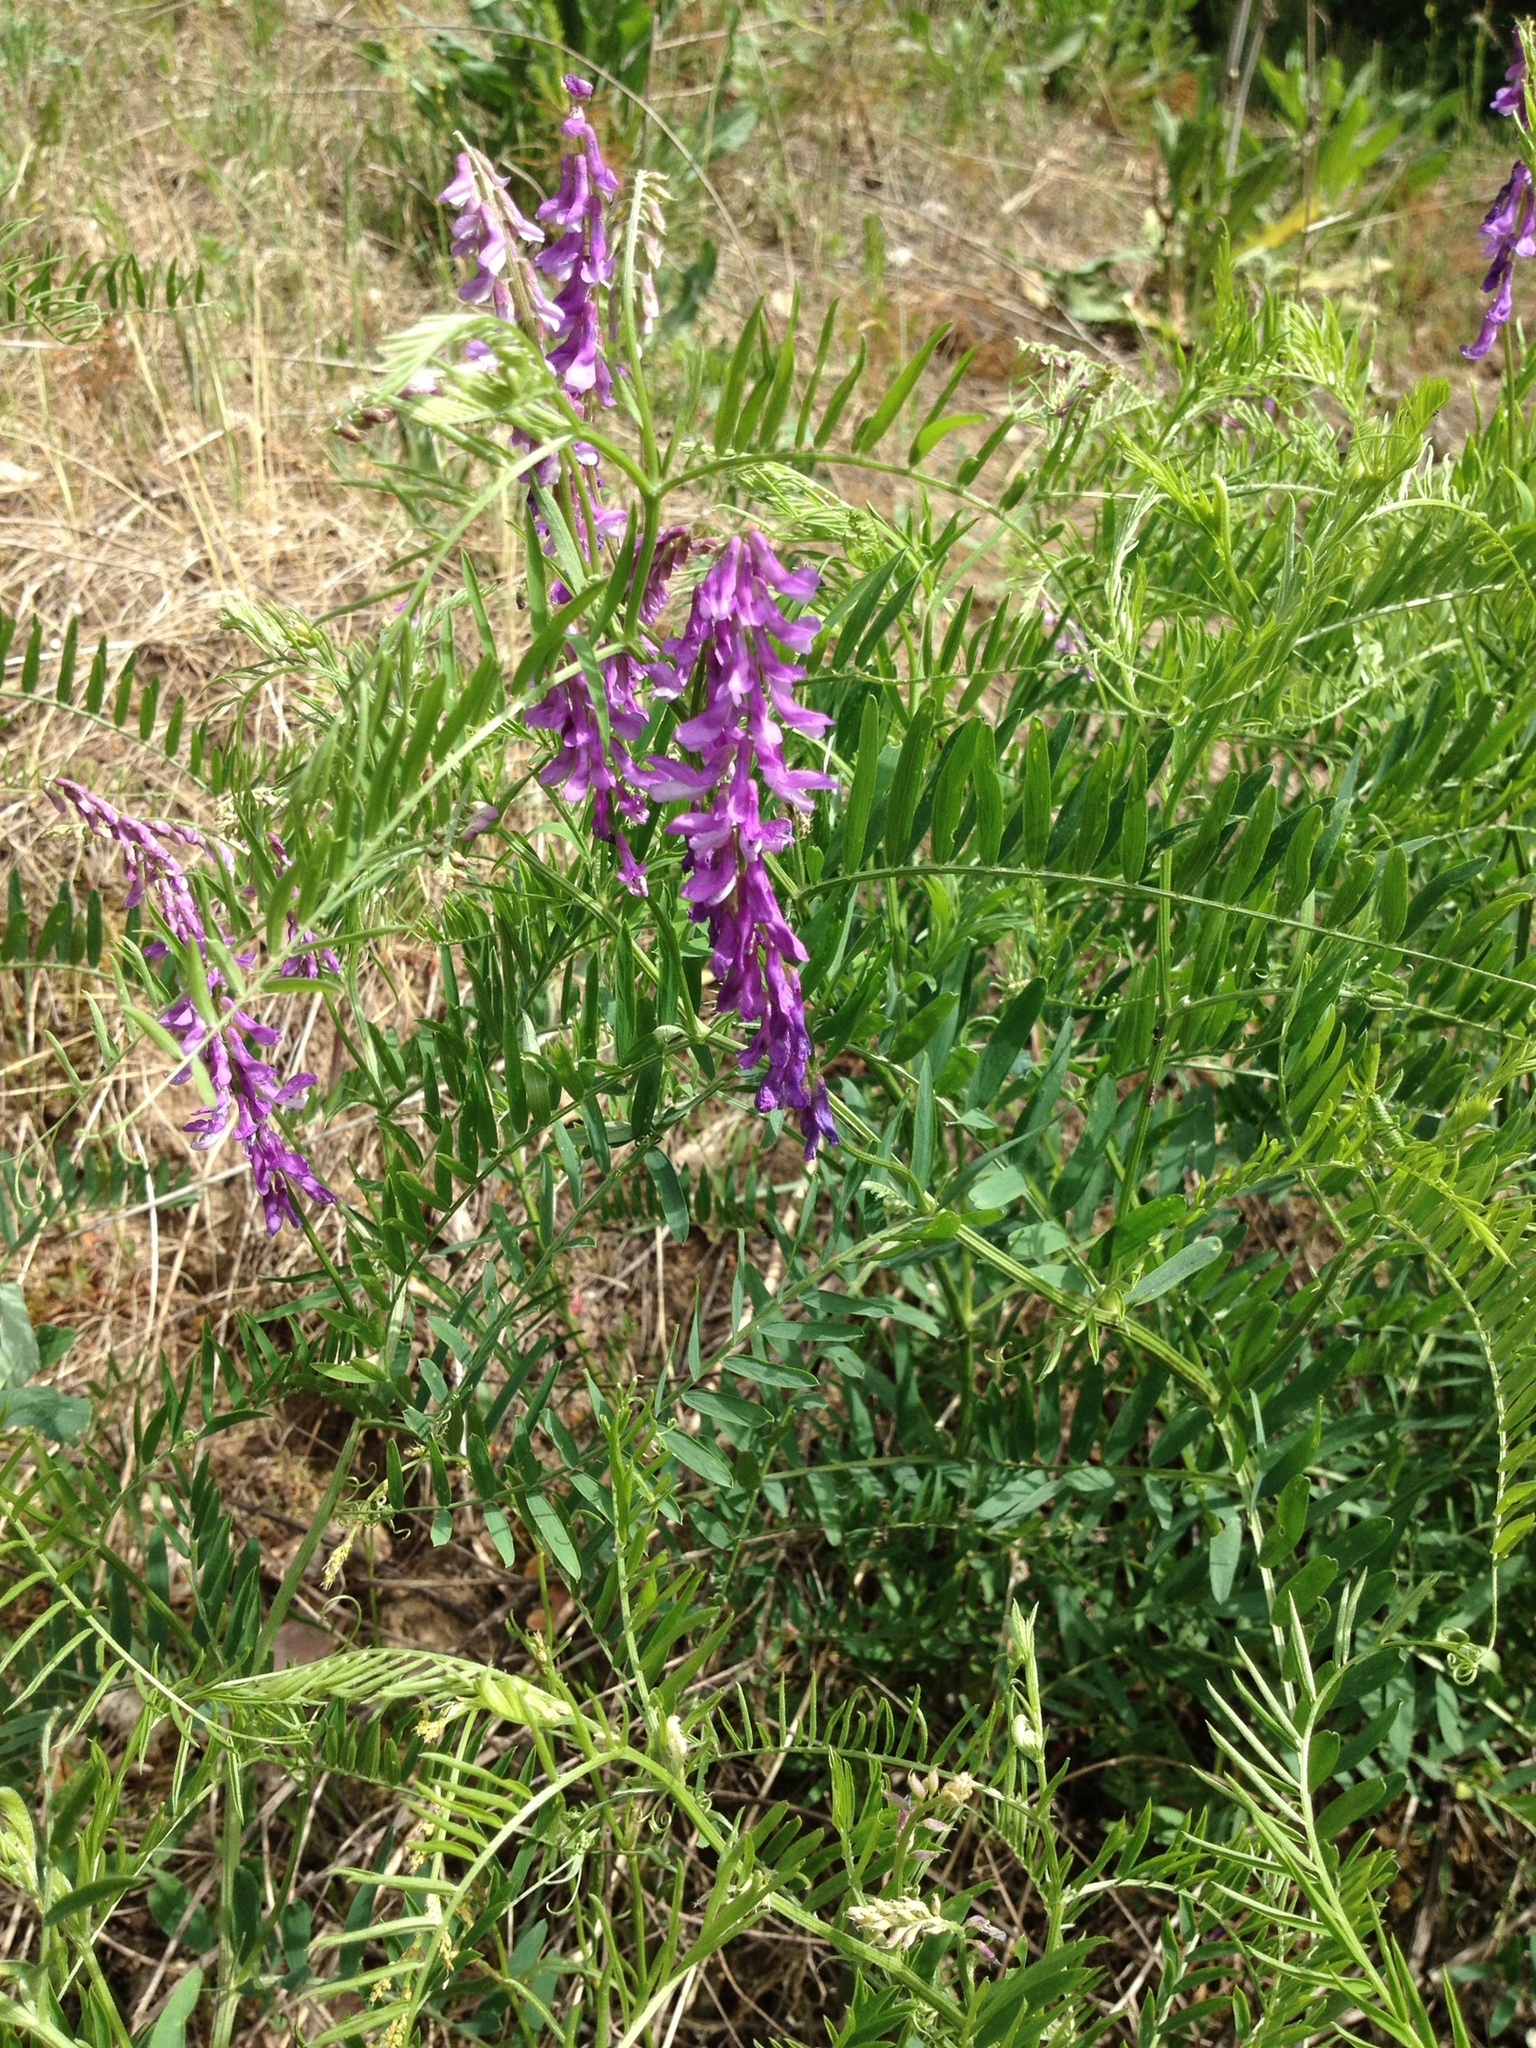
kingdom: Plantae
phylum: Tracheophyta
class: Magnoliopsida
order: Fabales
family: Fabaceae
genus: Vicia
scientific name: Vicia tenuifolia
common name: Fine-leaved vetch
